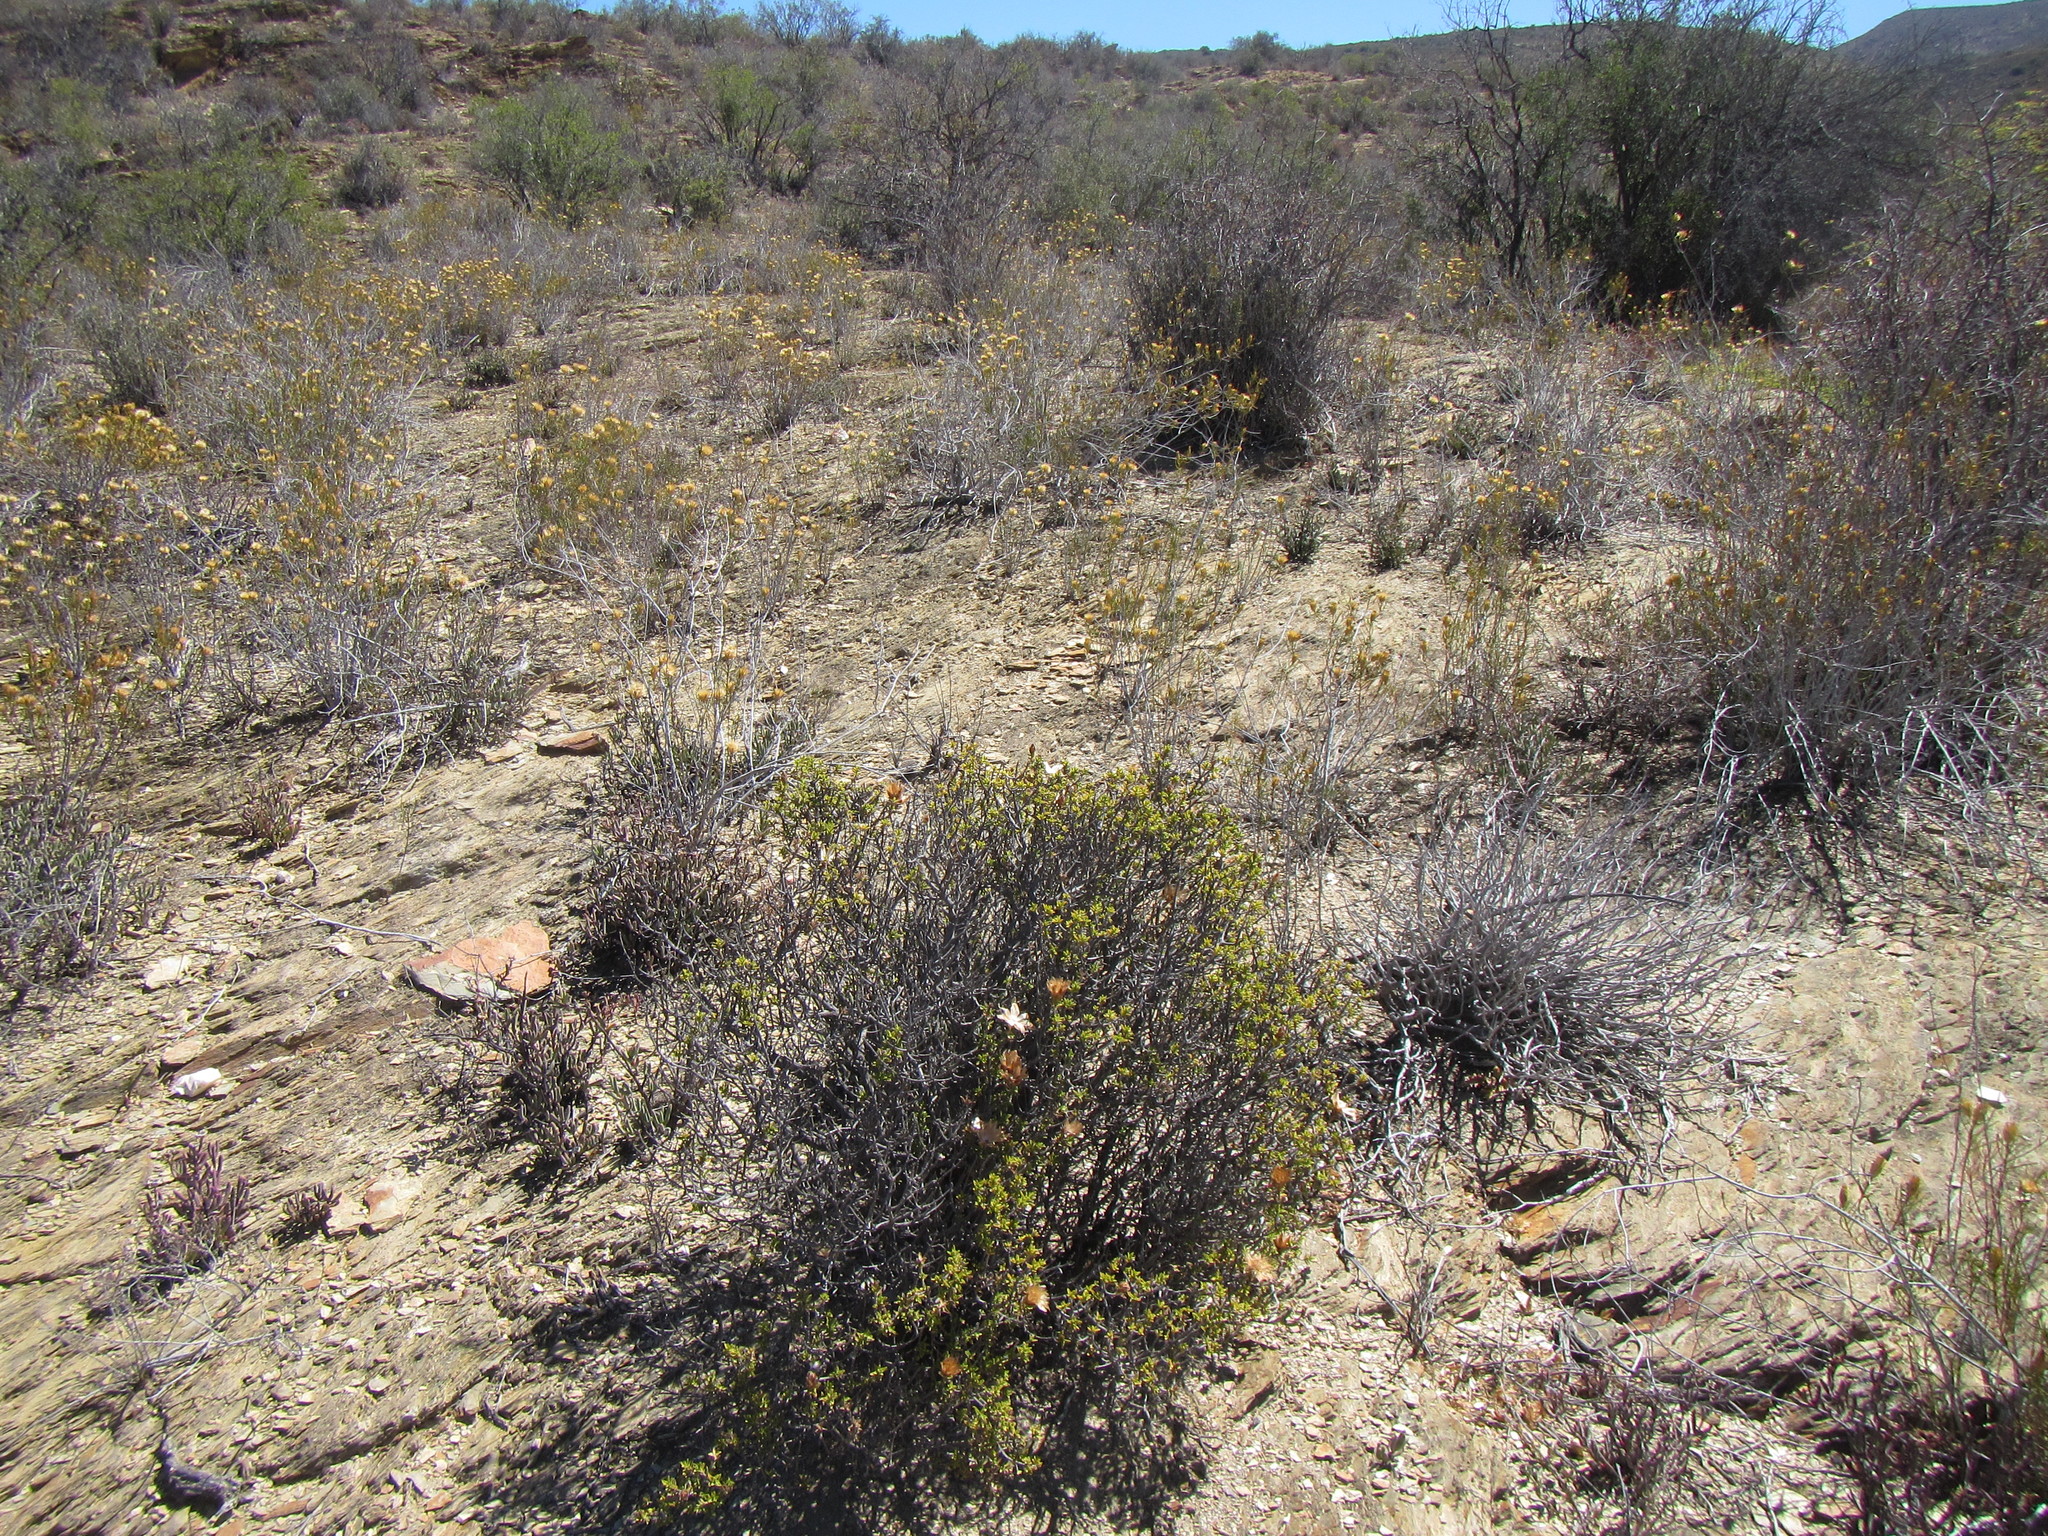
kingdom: Plantae
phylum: Tracheophyta
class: Magnoliopsida
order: Asterales
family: Asteraceae
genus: Pteronia
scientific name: Pteronia hutchinsoniana
